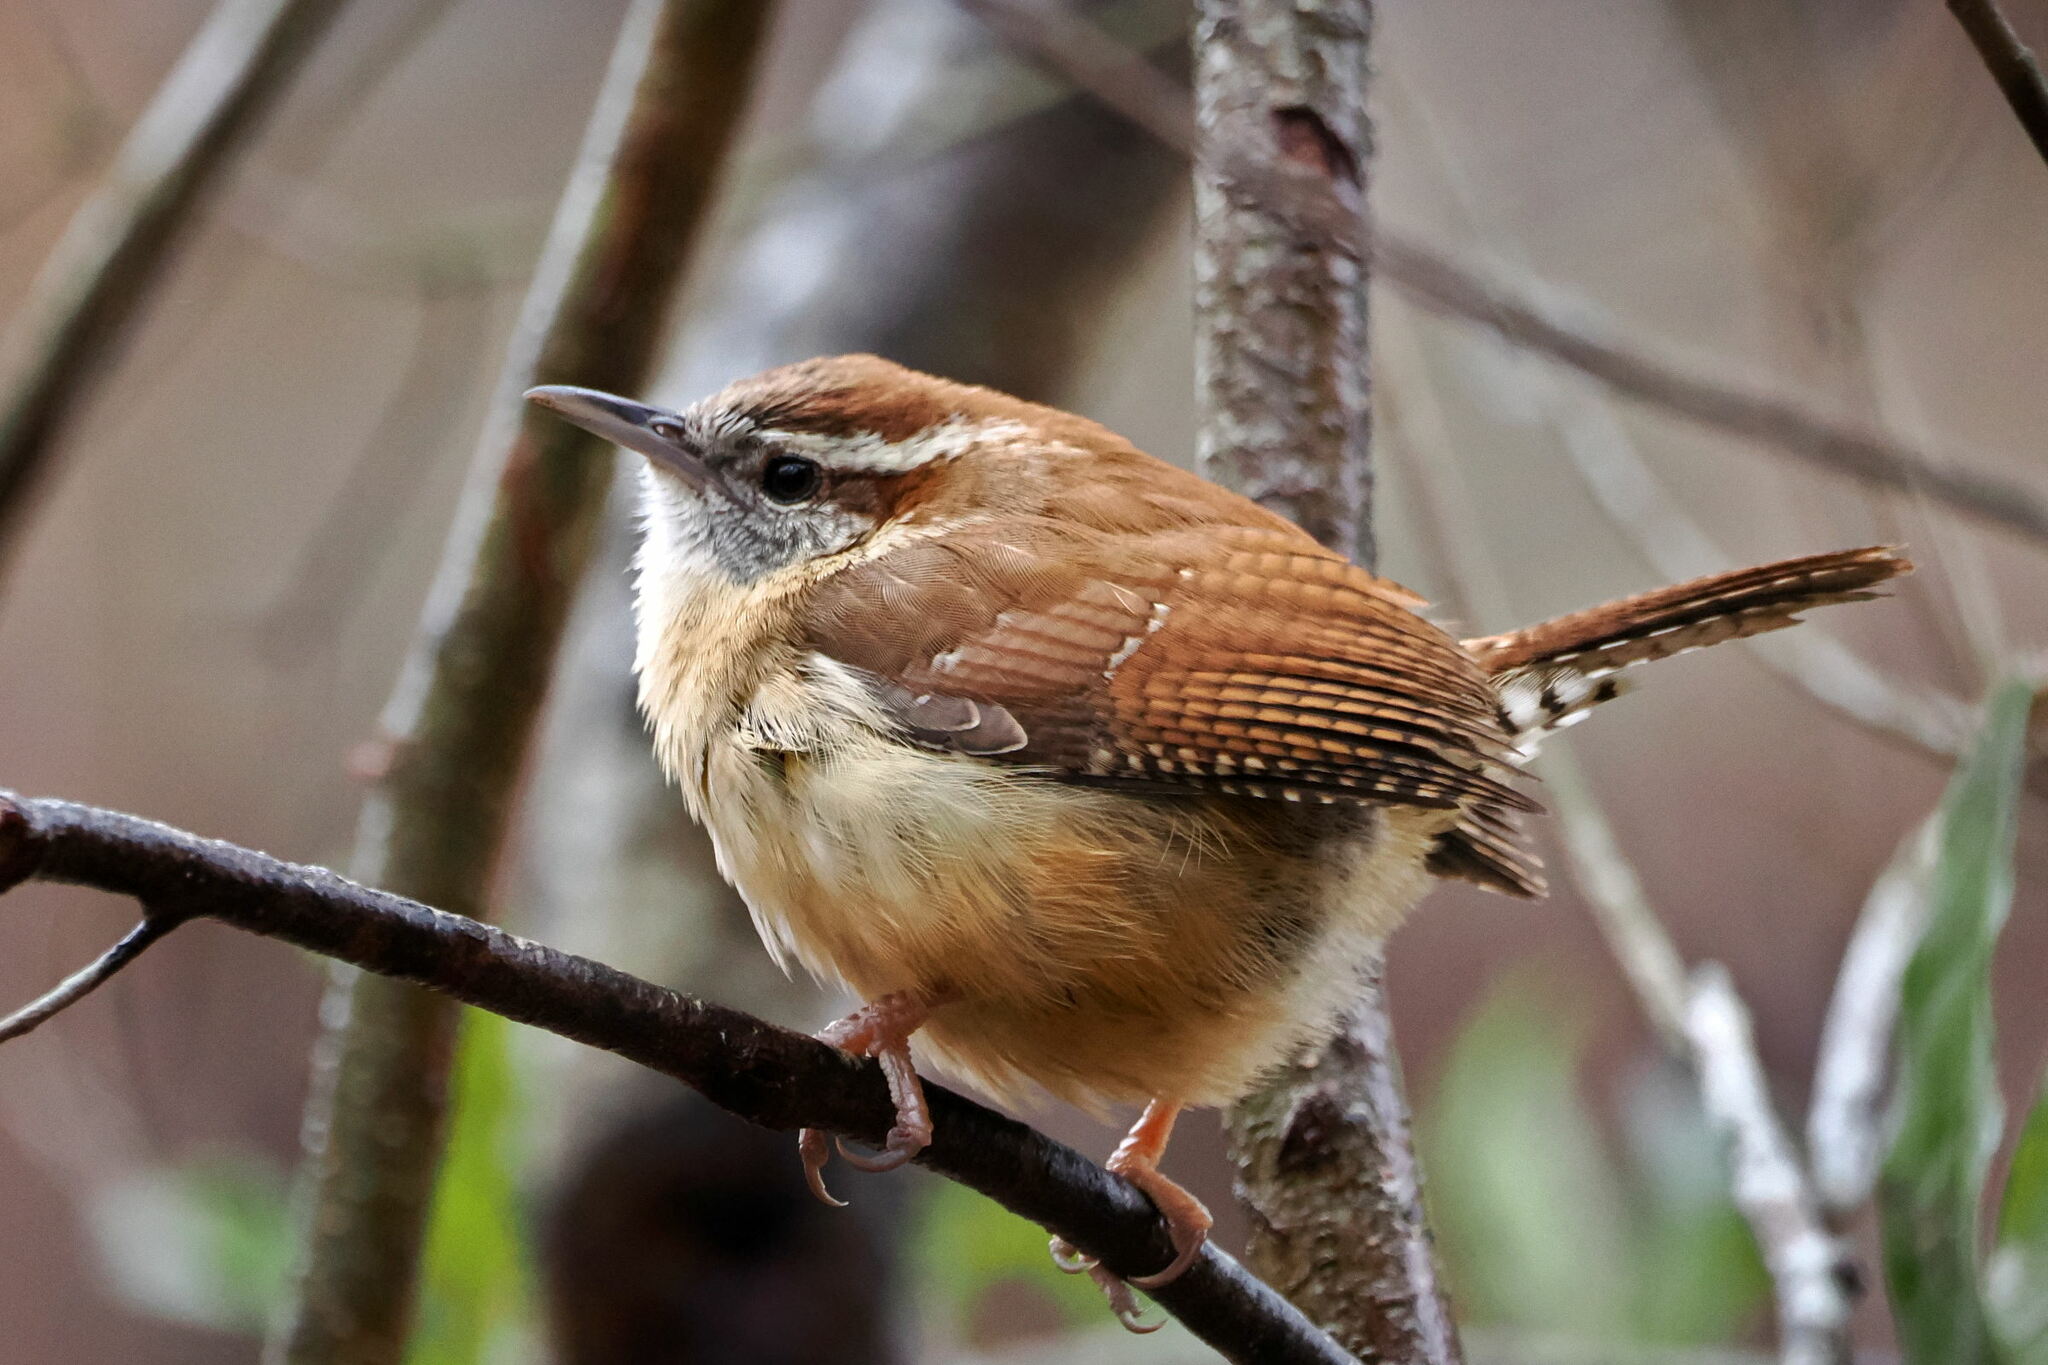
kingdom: Animalia
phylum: Chordata
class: Aves
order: Passeriformes
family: Troglodytidae
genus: Thryothorus
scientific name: Thryothorus ludovicianus
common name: Carolina wren
